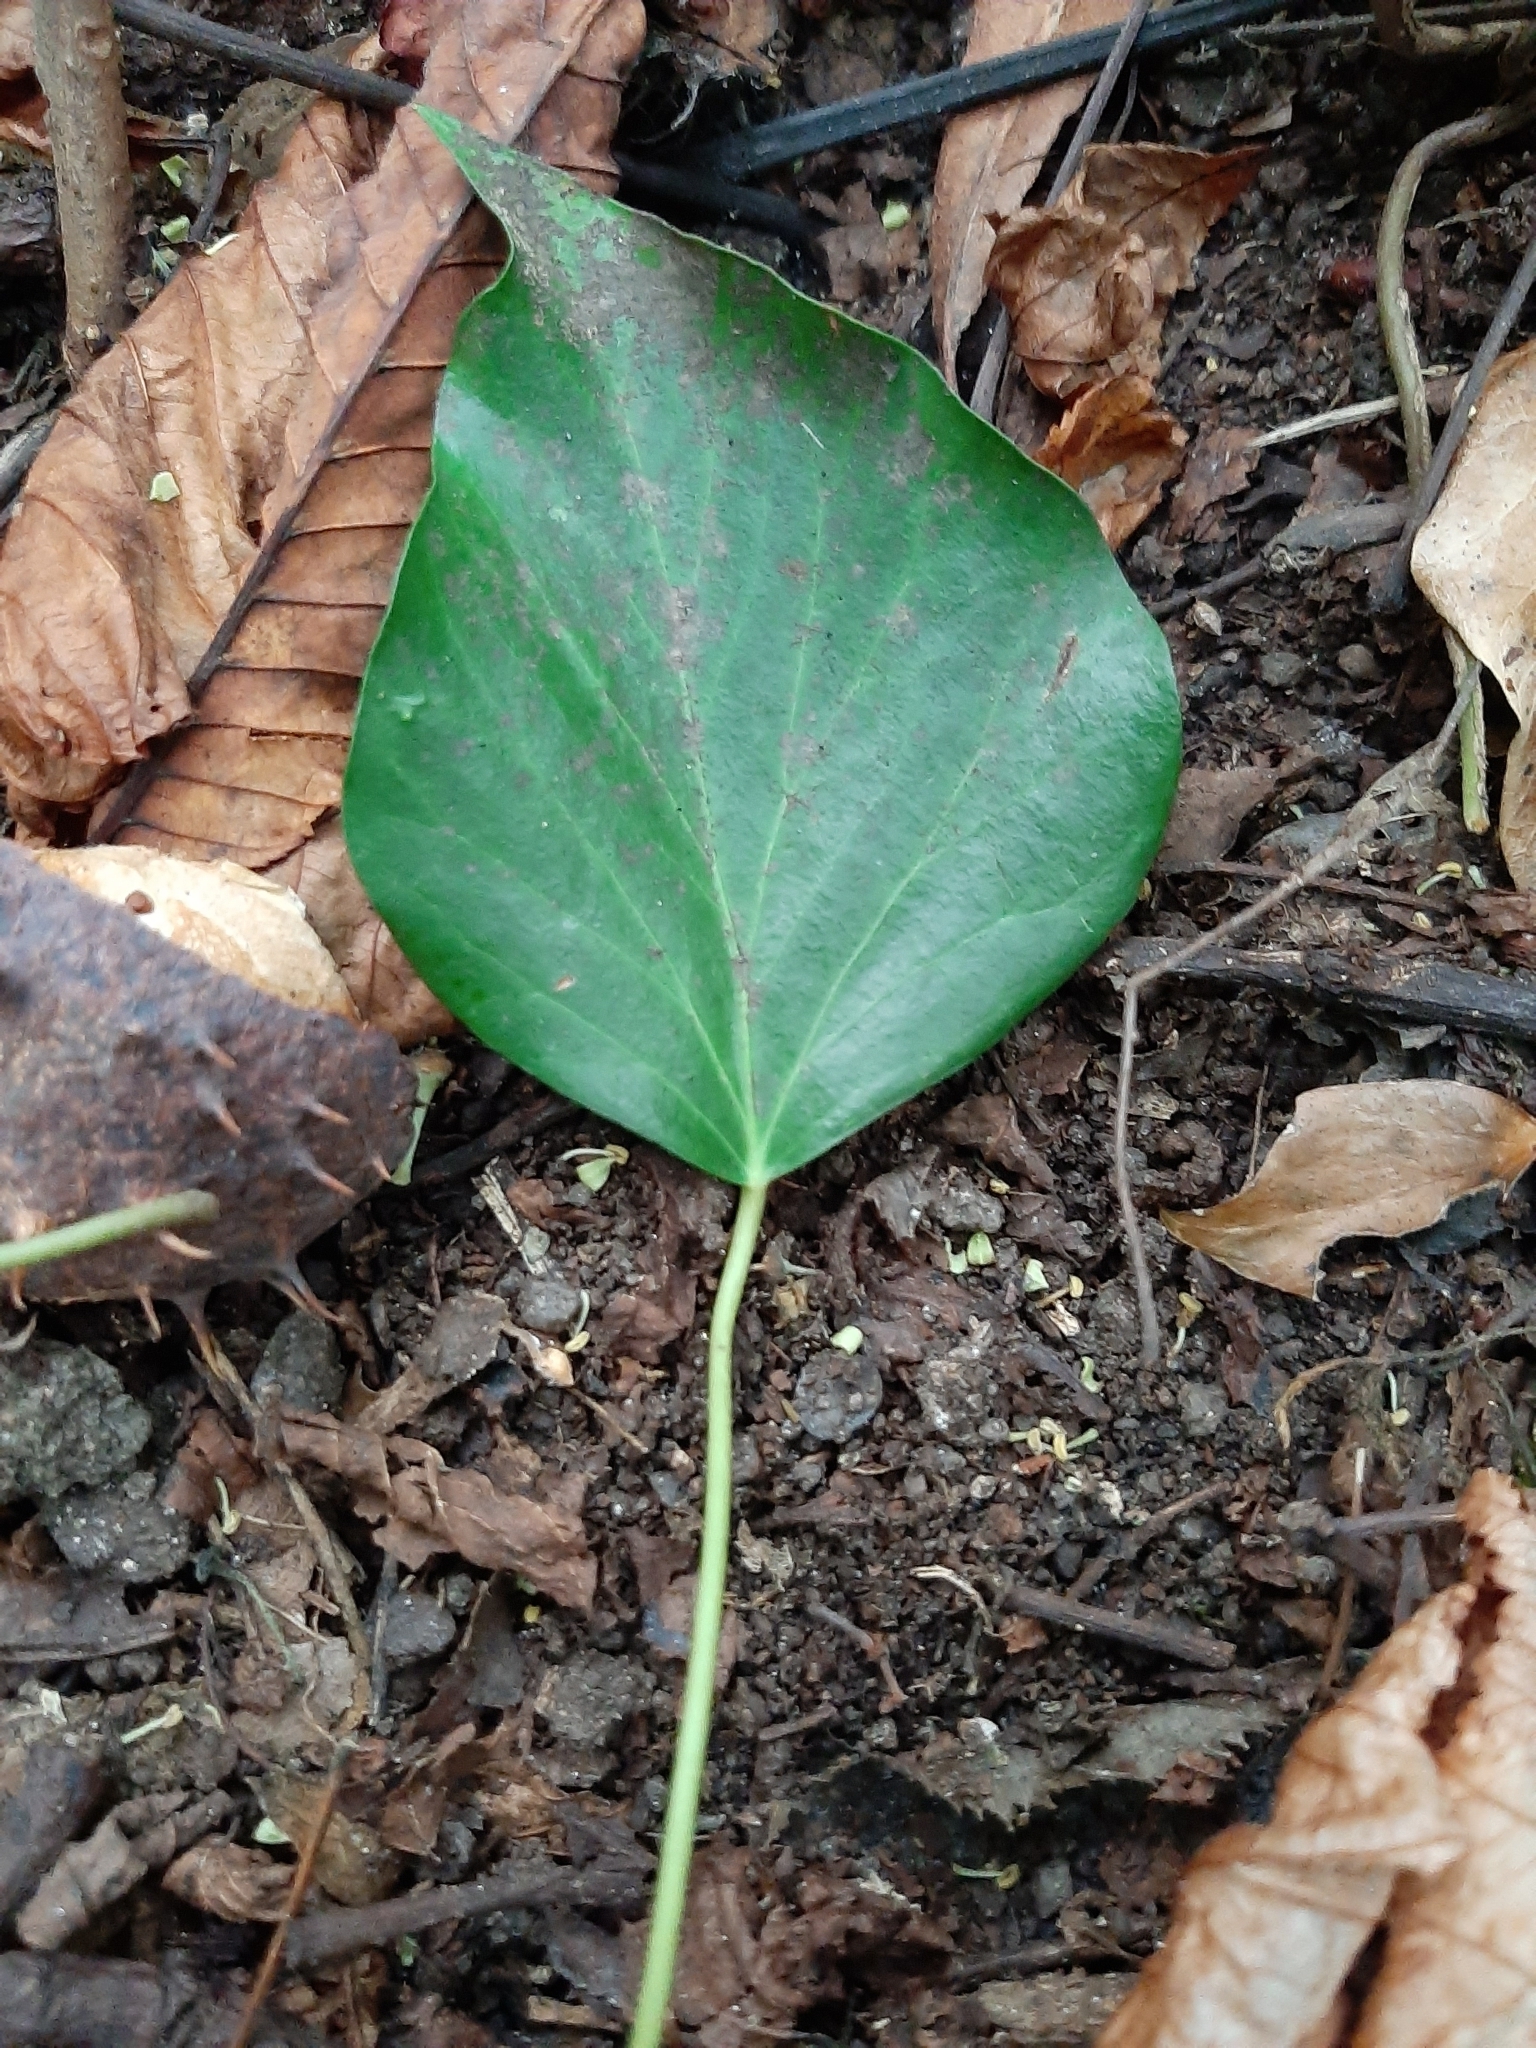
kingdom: Plantae
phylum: Tracheophyta
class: Magnoliopsida
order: Apiales
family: Araliaceae
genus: Hedera
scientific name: Hedera helix
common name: Ivy
